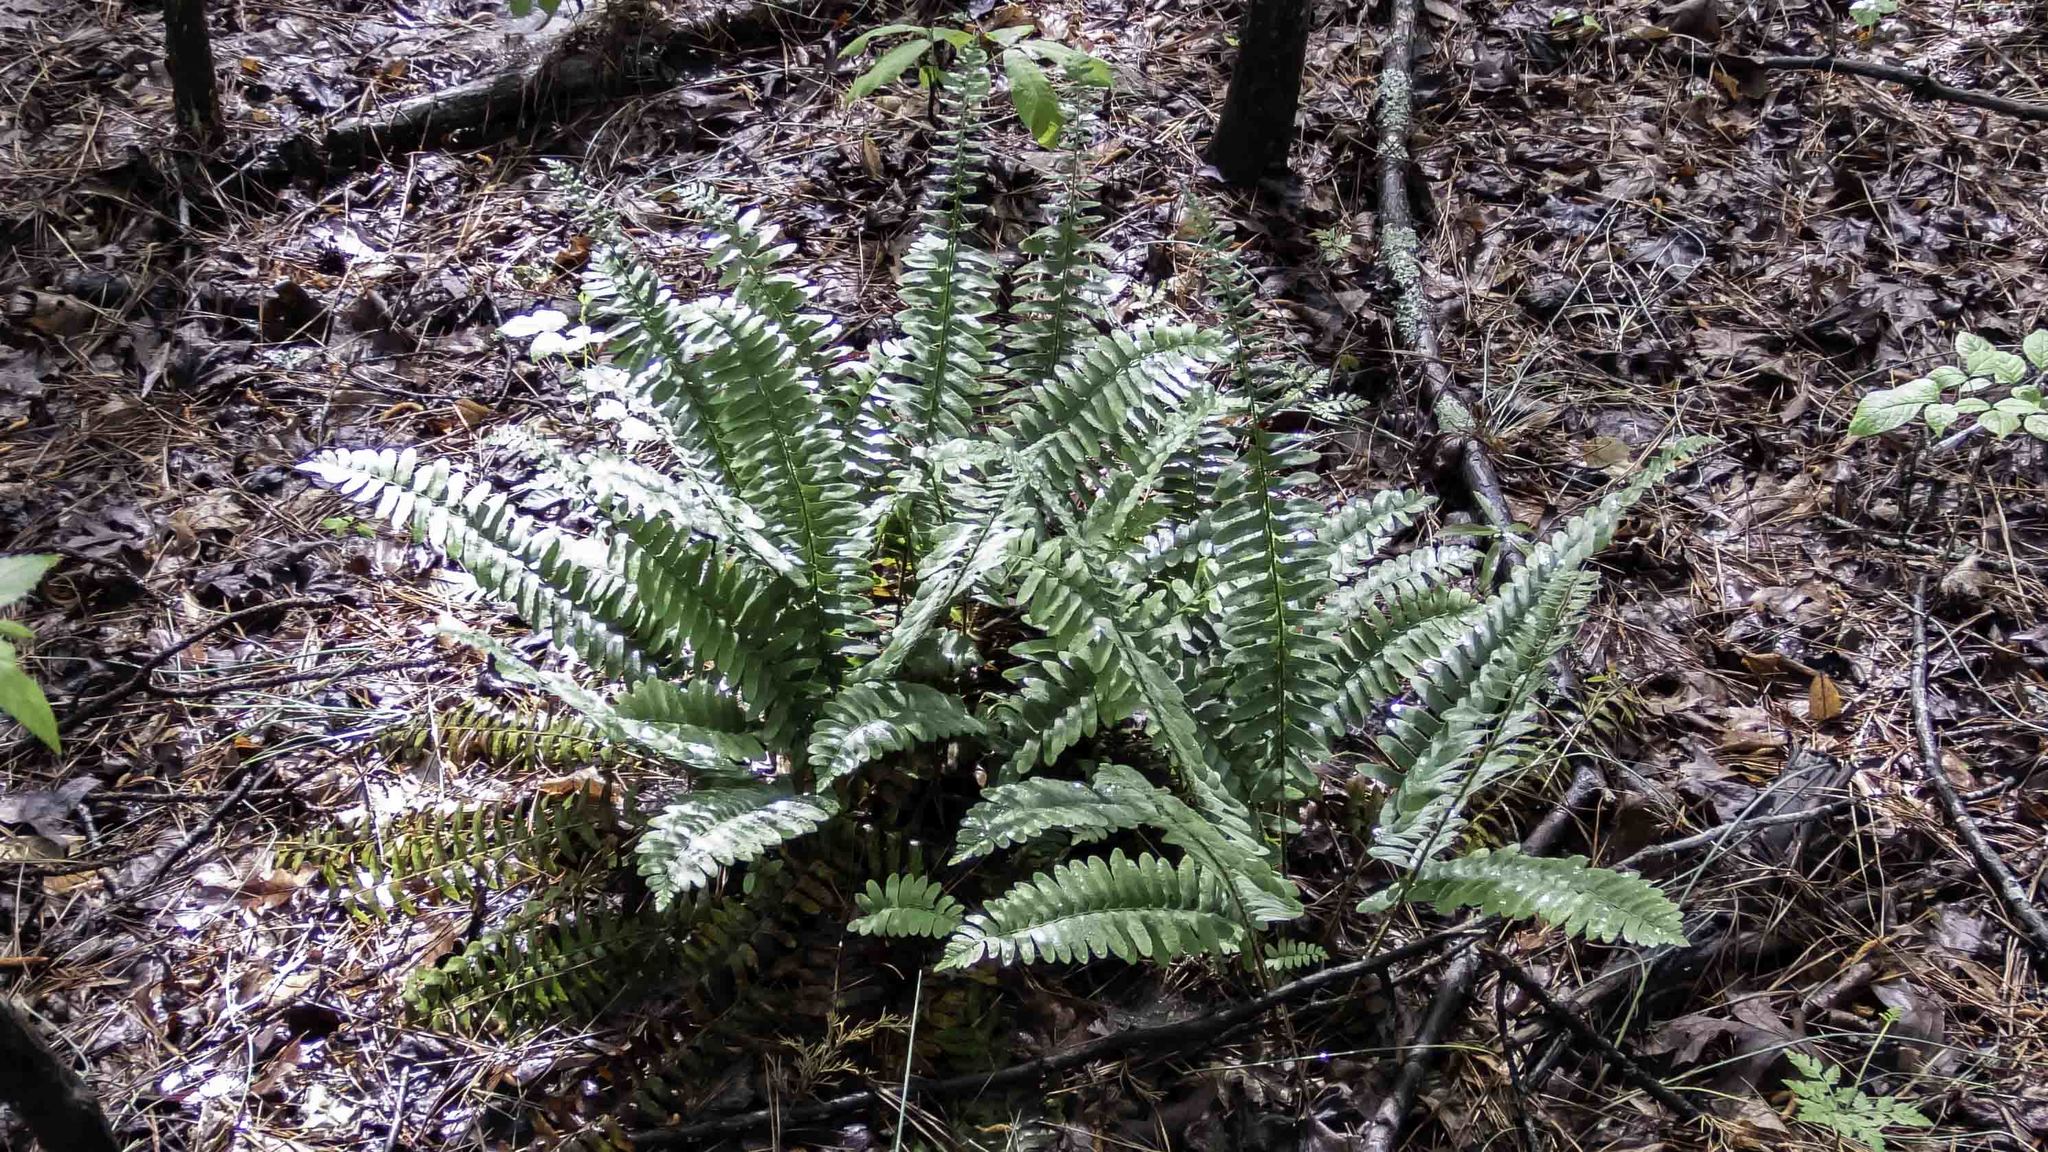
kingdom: Plantae
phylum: Tracheophyta
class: Polypodiopsida
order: Polypodiales
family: Dryopteridaceae
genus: Polystichum
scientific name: Polystichum acrostichoides
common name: Christmas fern
